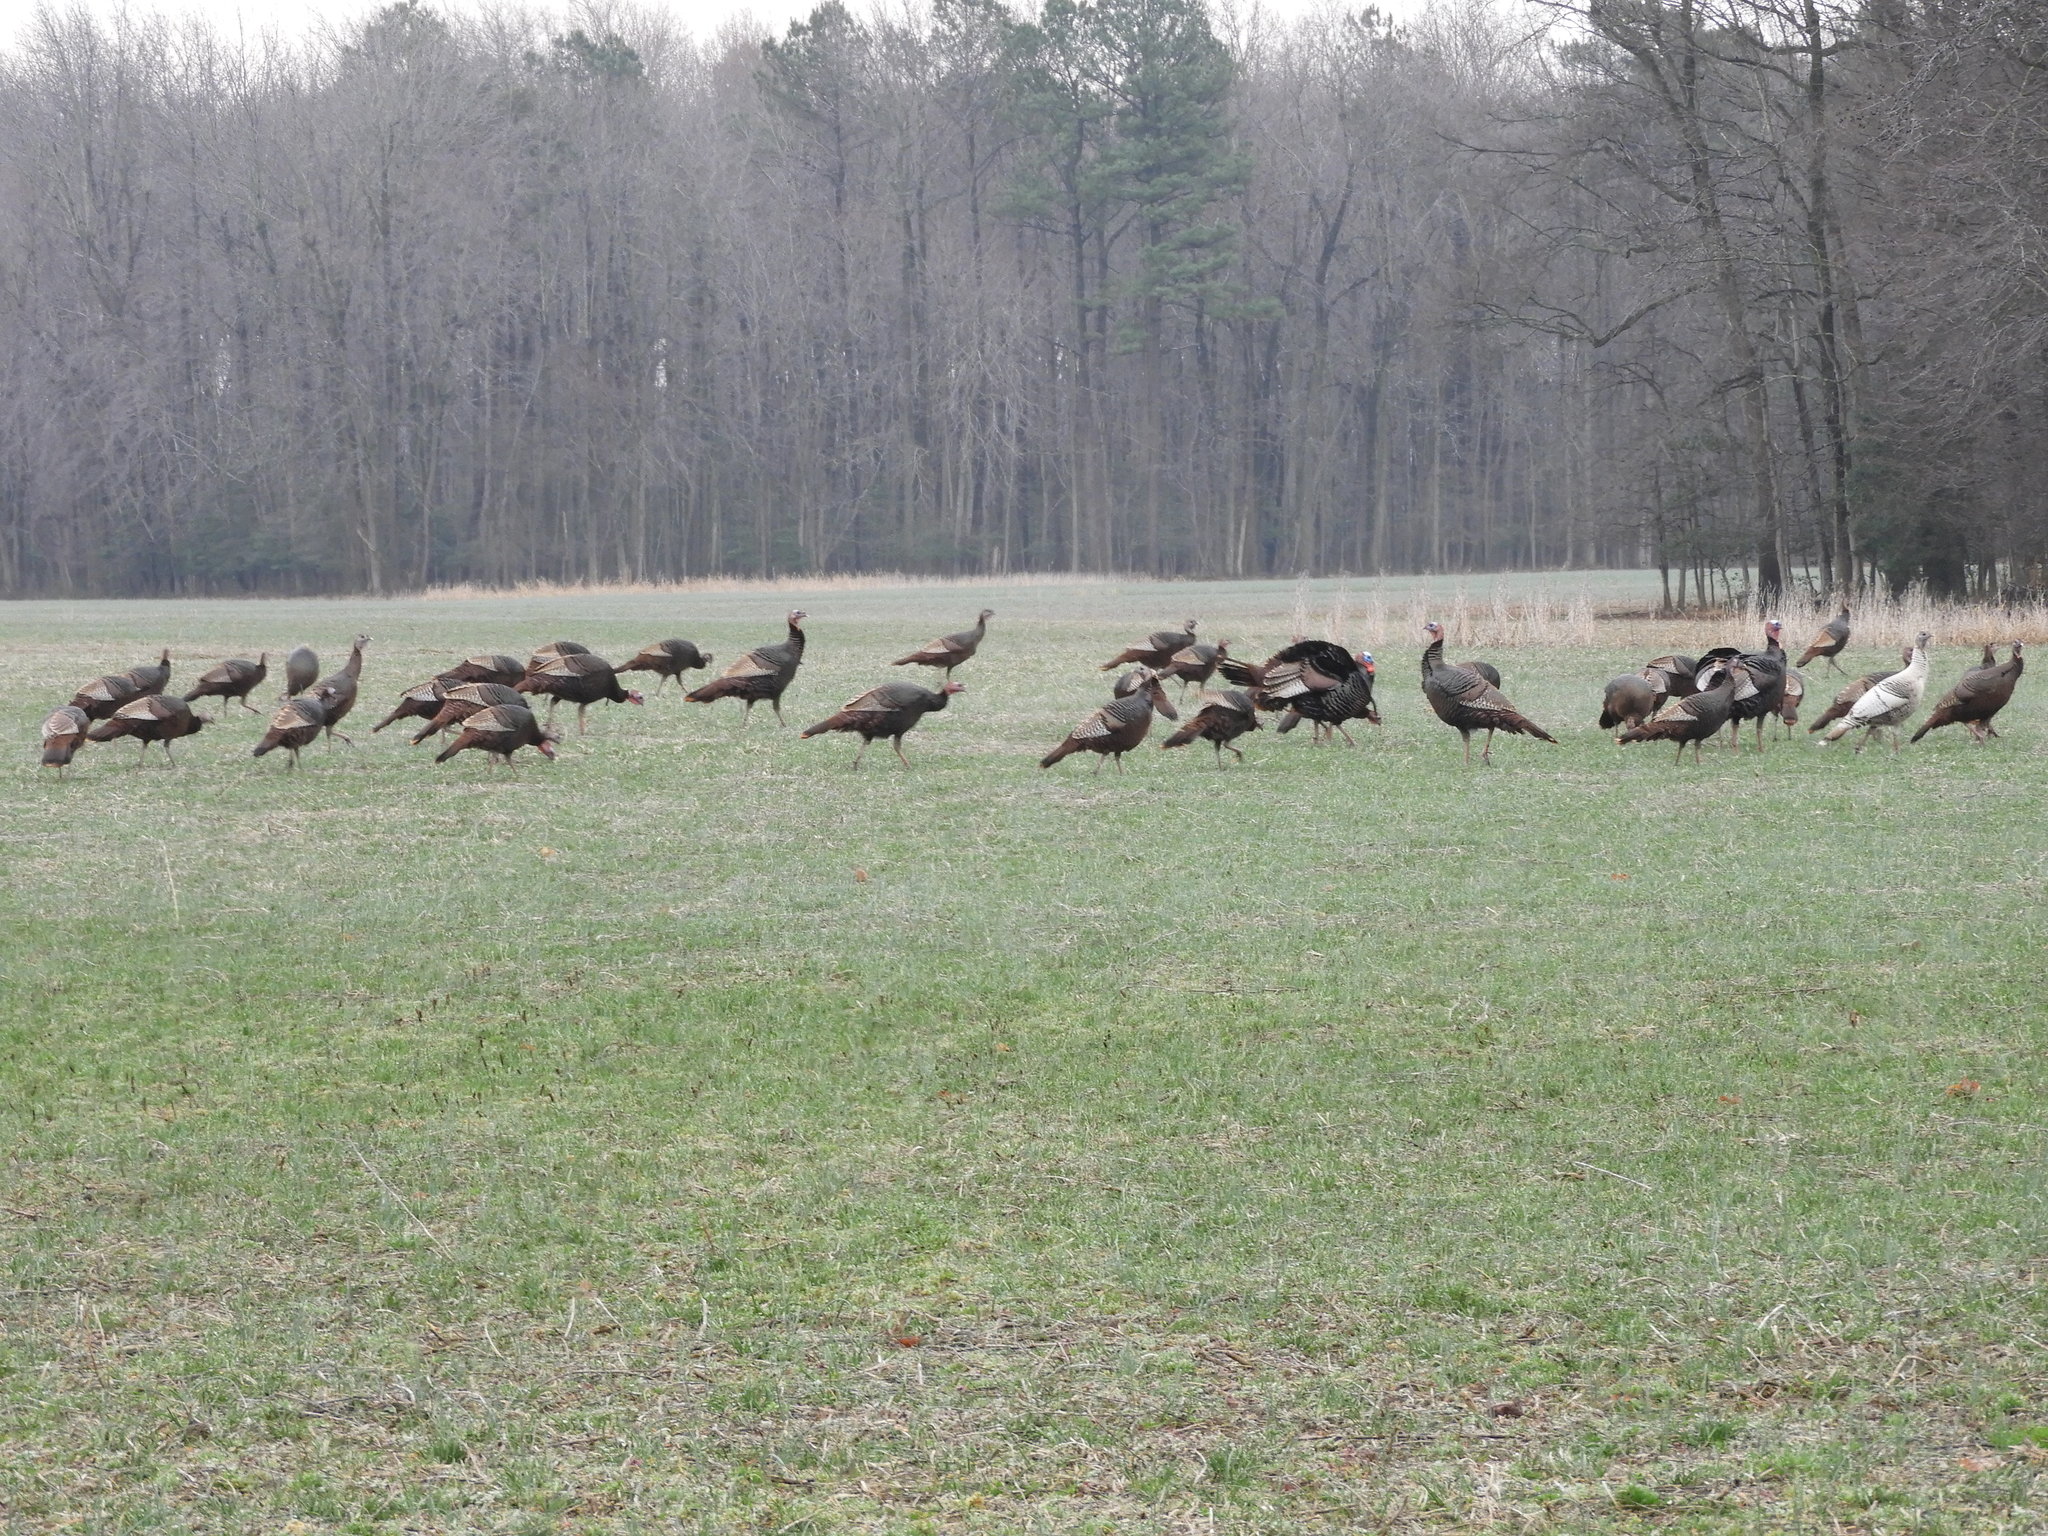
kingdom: Animalia
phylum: Chordata
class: Aves
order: Galliformes
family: Phasianidae
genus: Meleagris
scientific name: Meleagris gallopavo
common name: Wild turkey
